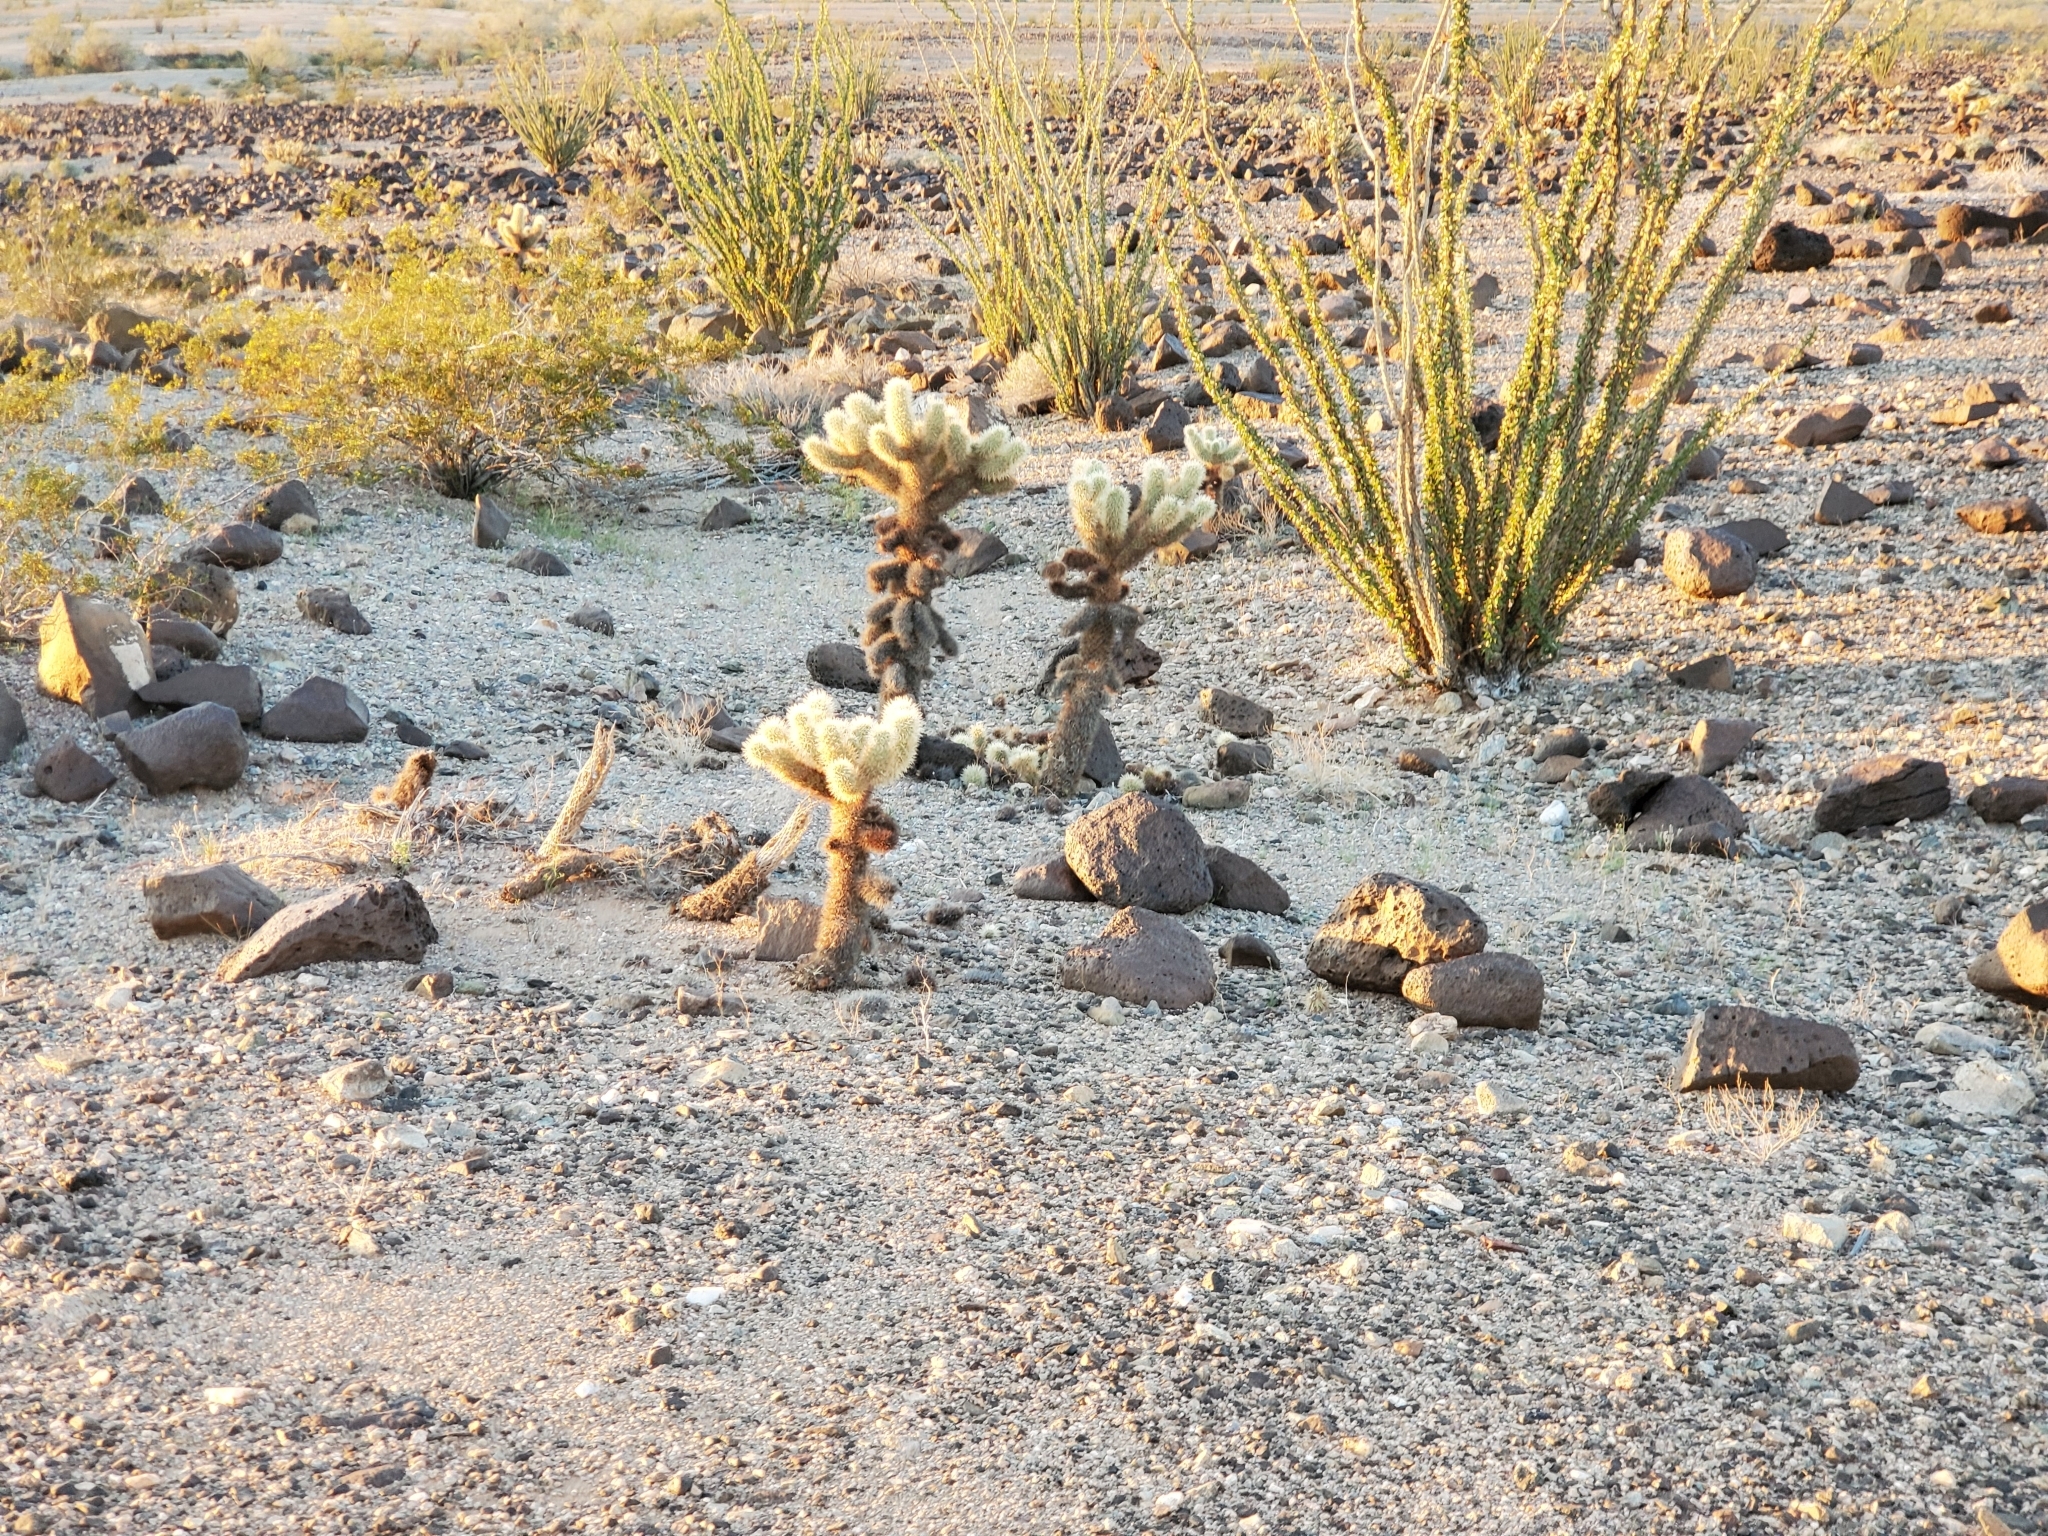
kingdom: Plantae
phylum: Tracheophyta
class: Magnoliopsida
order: Caryophyllales
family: Cactaceae
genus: Cylindropuntia
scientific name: Cylindropuntia fosbergii
